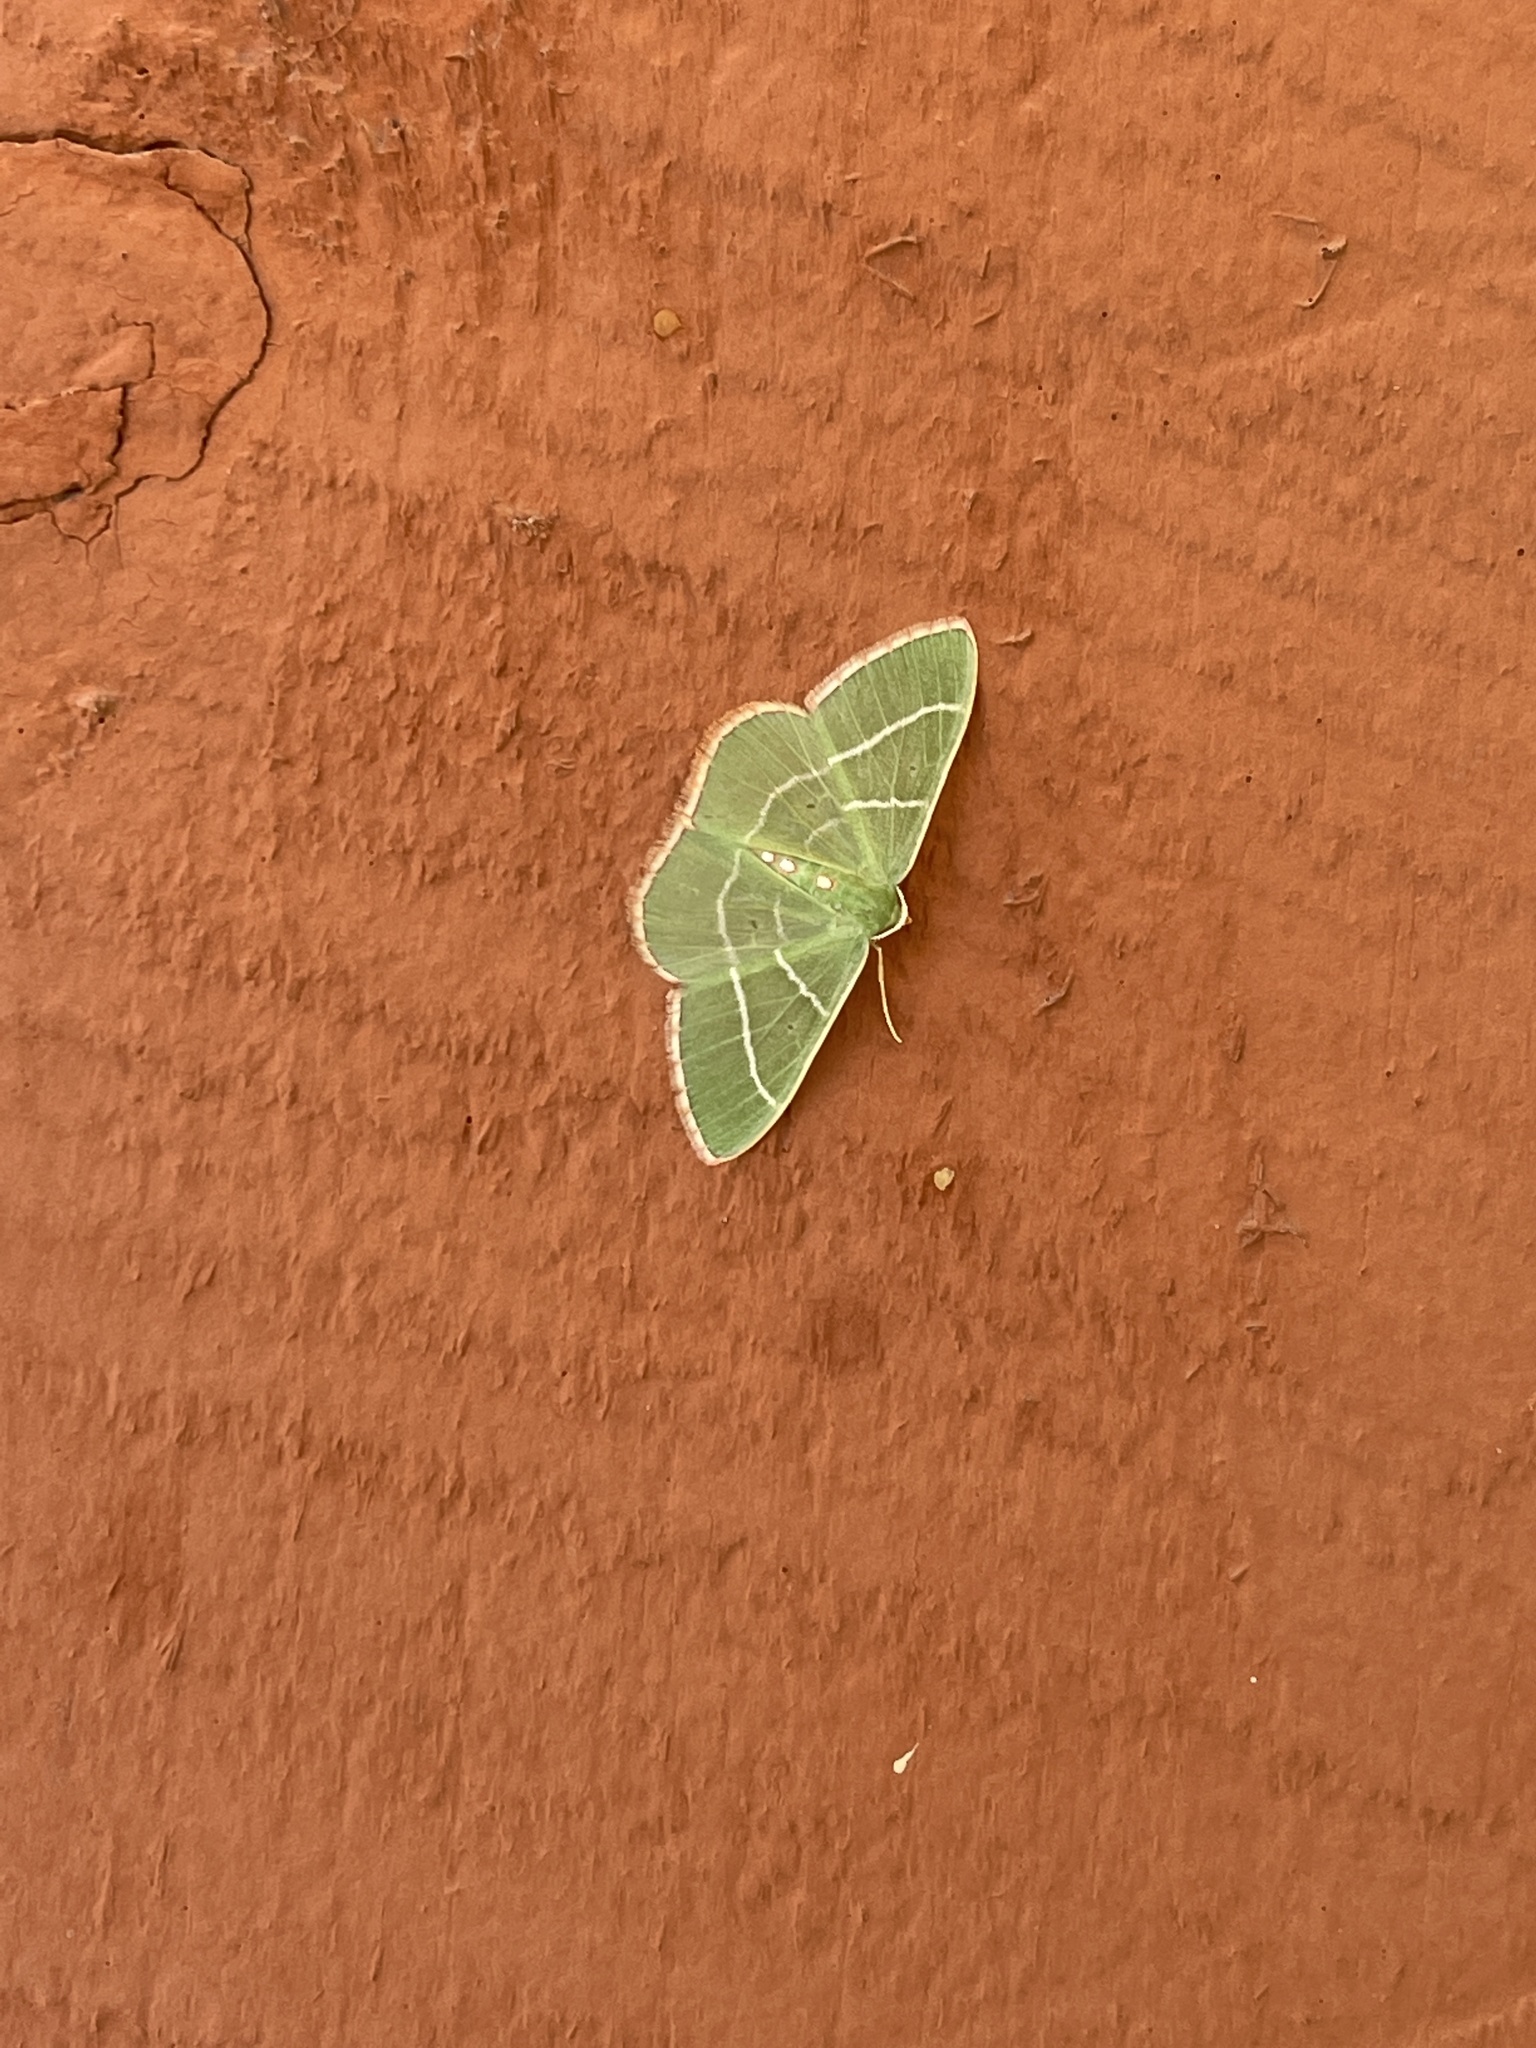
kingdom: Animalia
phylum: Arthropoda
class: Insecta
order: Lepidoptera
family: Geometridae
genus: Nemoria
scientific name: Nemoria obliqua
